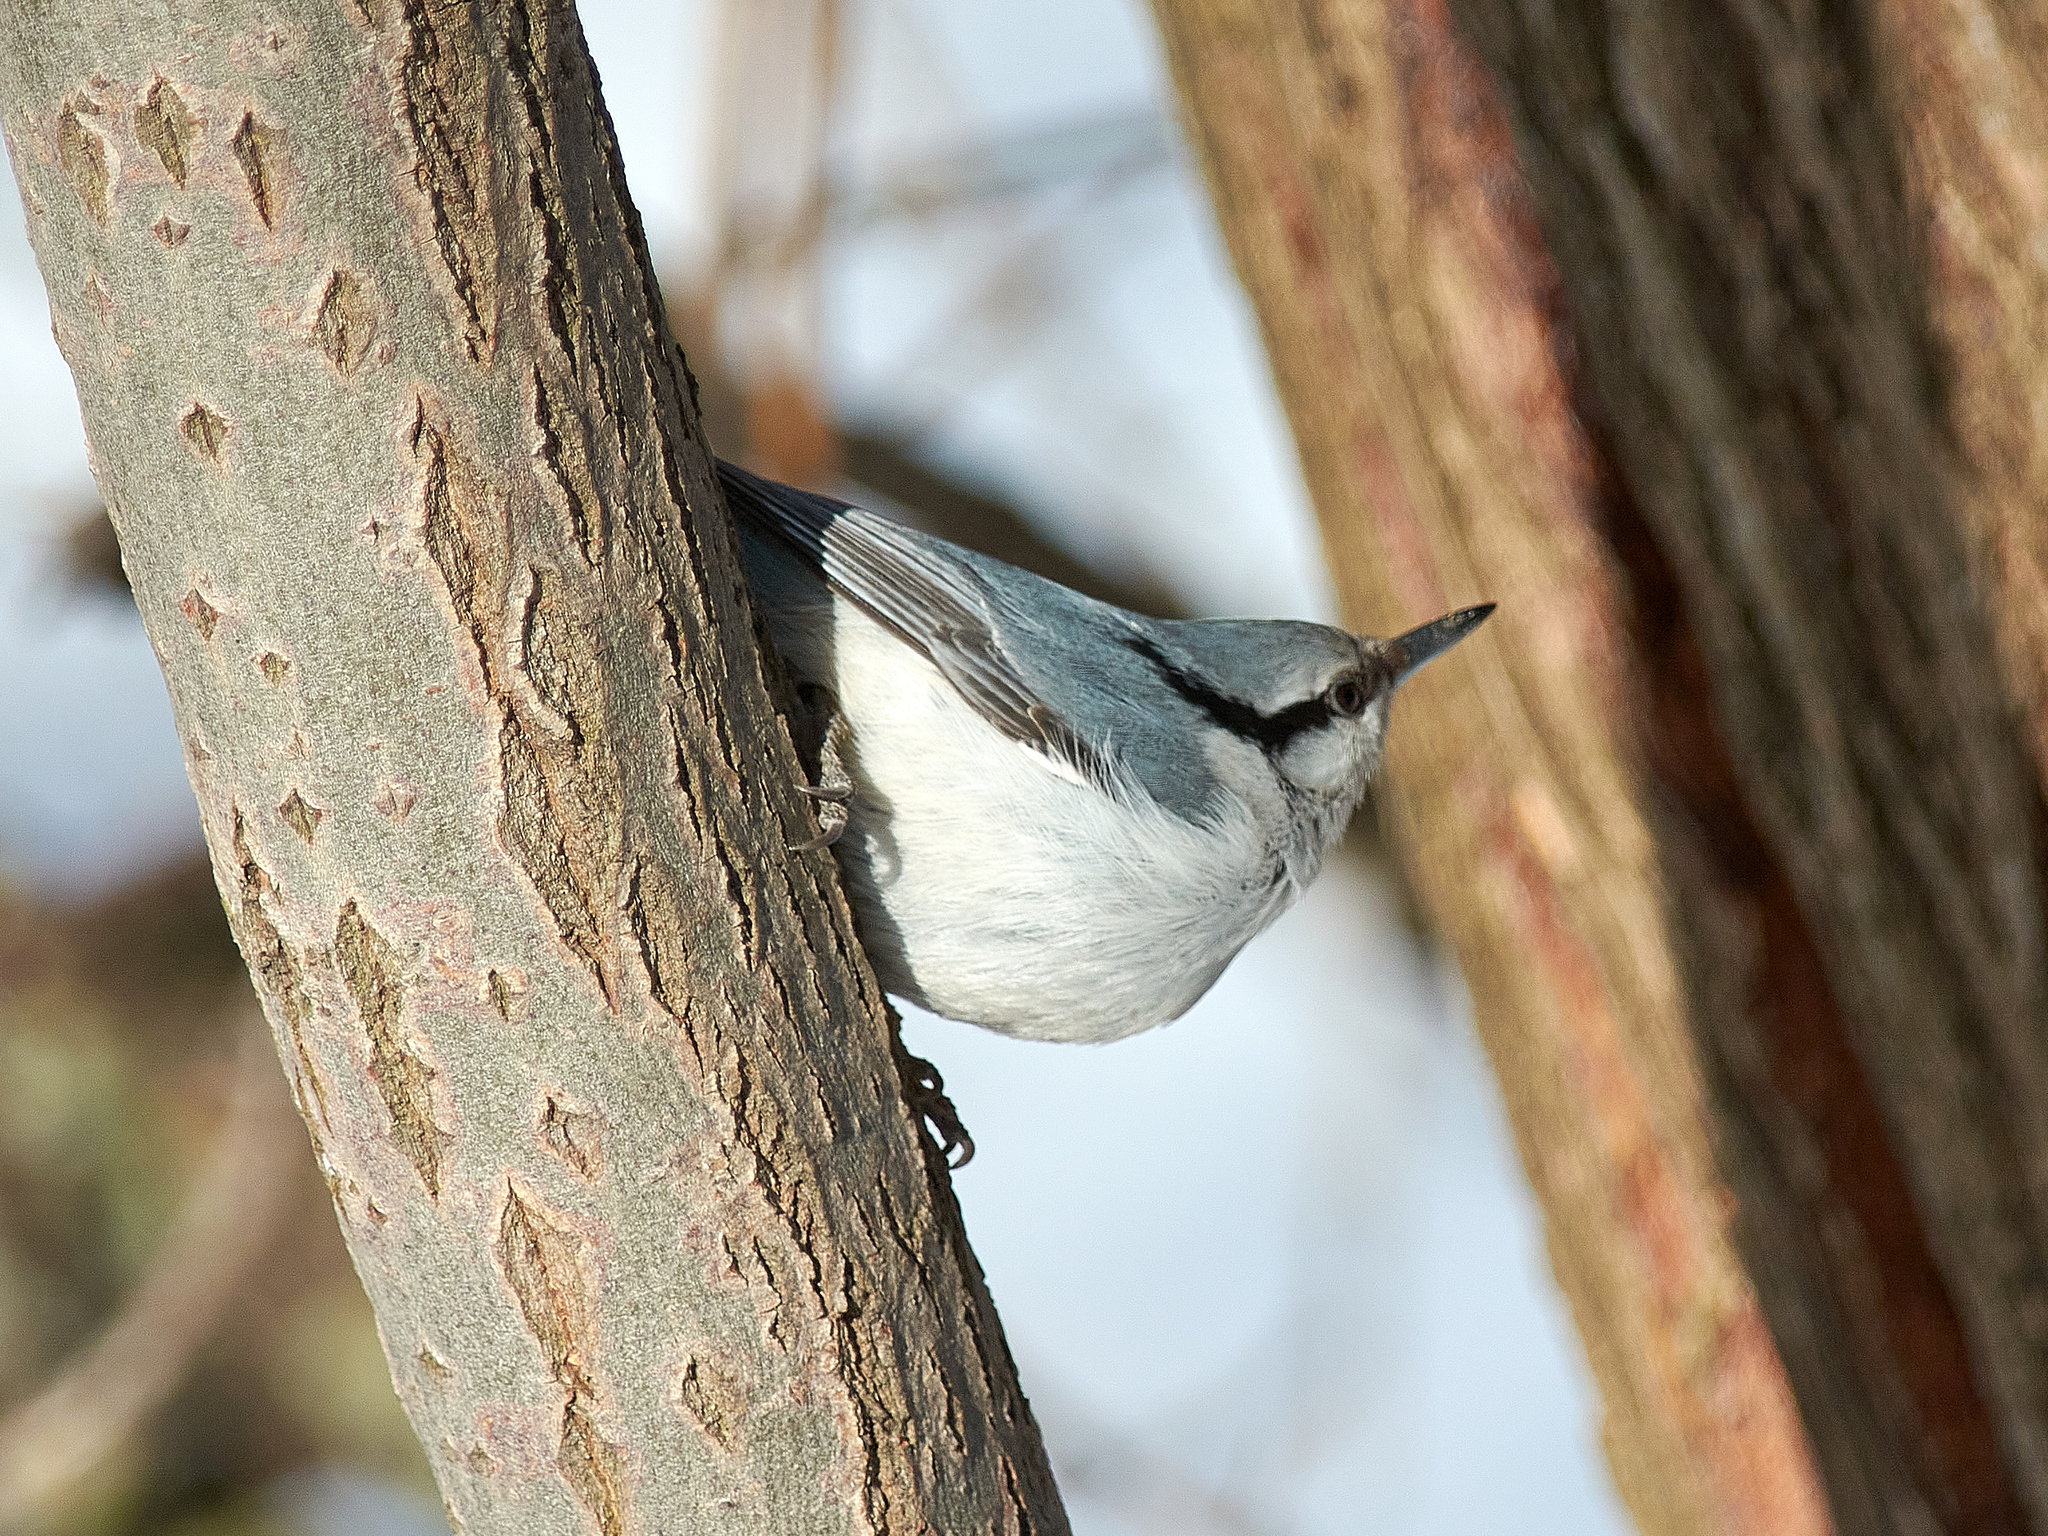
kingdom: Animalia
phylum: Chordata
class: Aves
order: Passeriformes
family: Sittidae
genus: Sitta
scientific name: Sitta europaea
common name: Eurasian nuthatch
